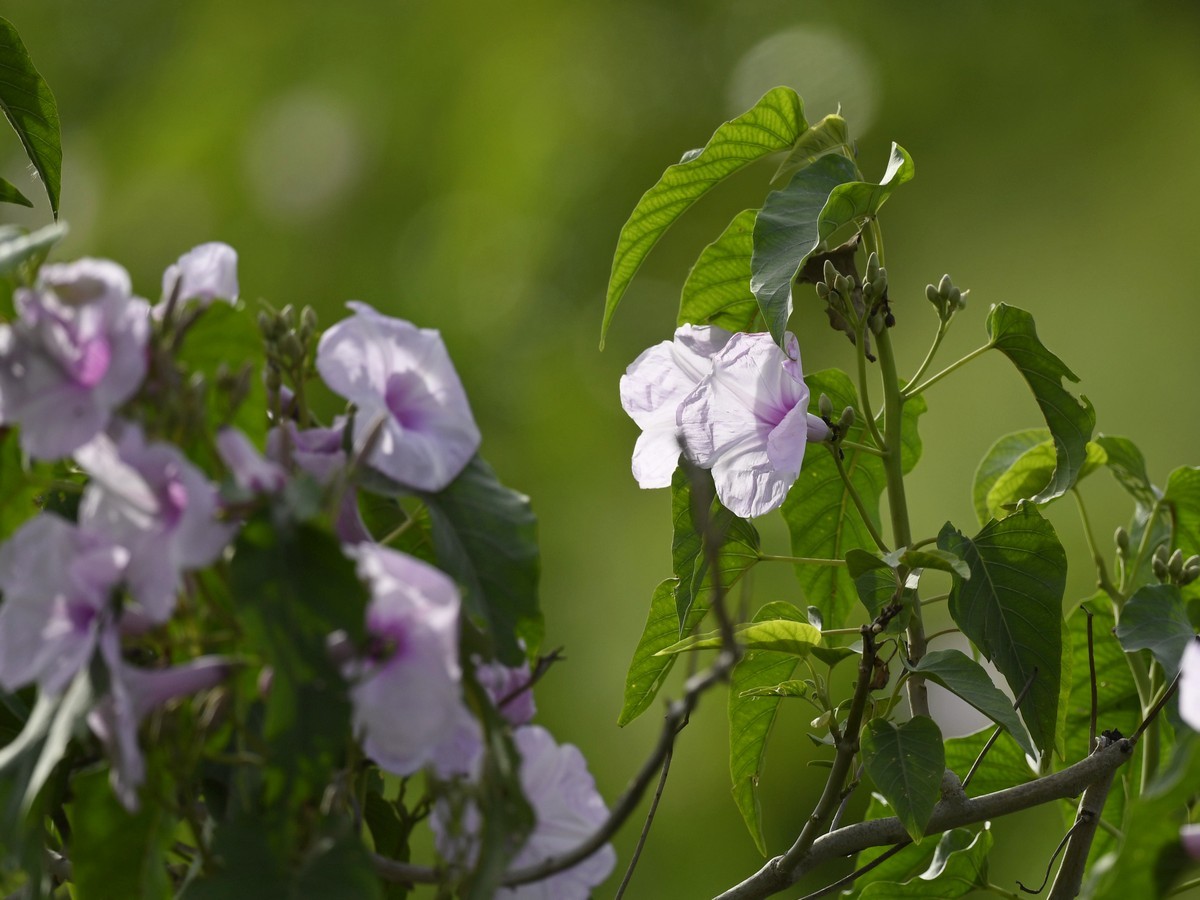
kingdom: Plantae
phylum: Tracheophyta
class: Magnoliopsida
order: Solanales
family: Convolvulaceae
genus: Ipomoea
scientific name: Ipomoea carnea
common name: Morning-glory
